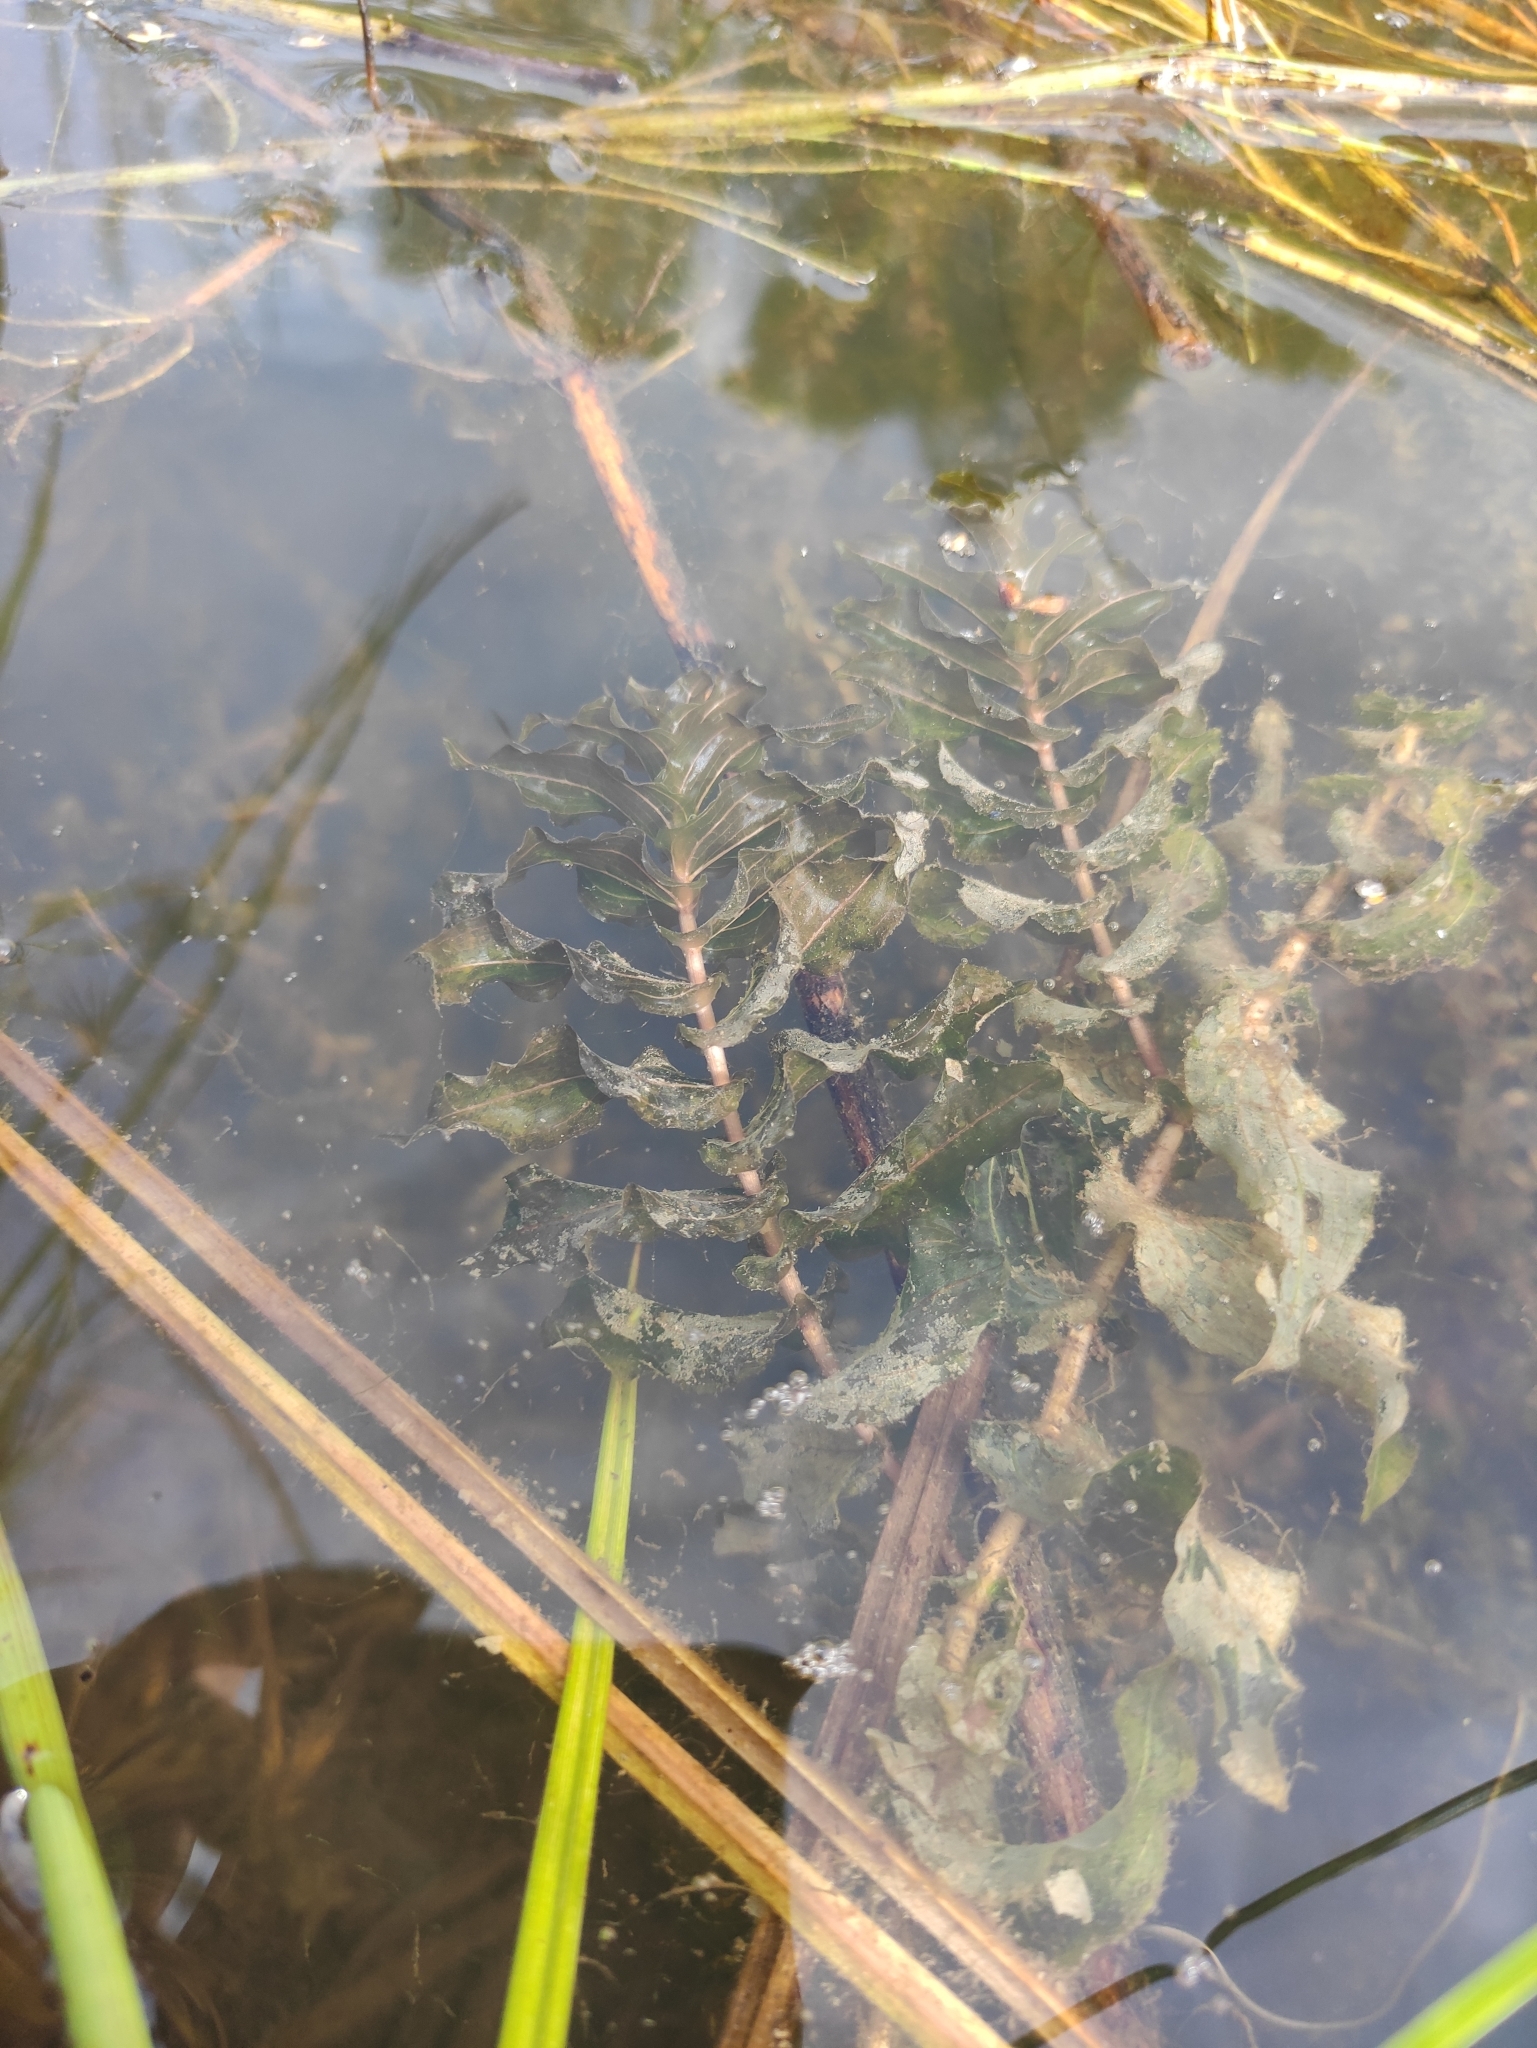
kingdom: Plantae
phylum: Tracheophyta
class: Liliopsida
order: Alismatales
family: Potamogetonaceae
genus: Potamogeton
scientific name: Potamogeton perfoliatus
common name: Perfoliate pondweed
